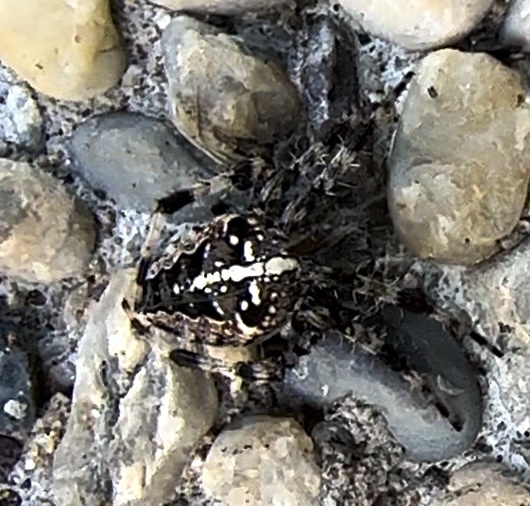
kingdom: Animalia
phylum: Arthropoda
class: Arachnida
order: Araneae
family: Araneidae
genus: Araneus
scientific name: Araneus diadematus
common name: Cross orbweaver
